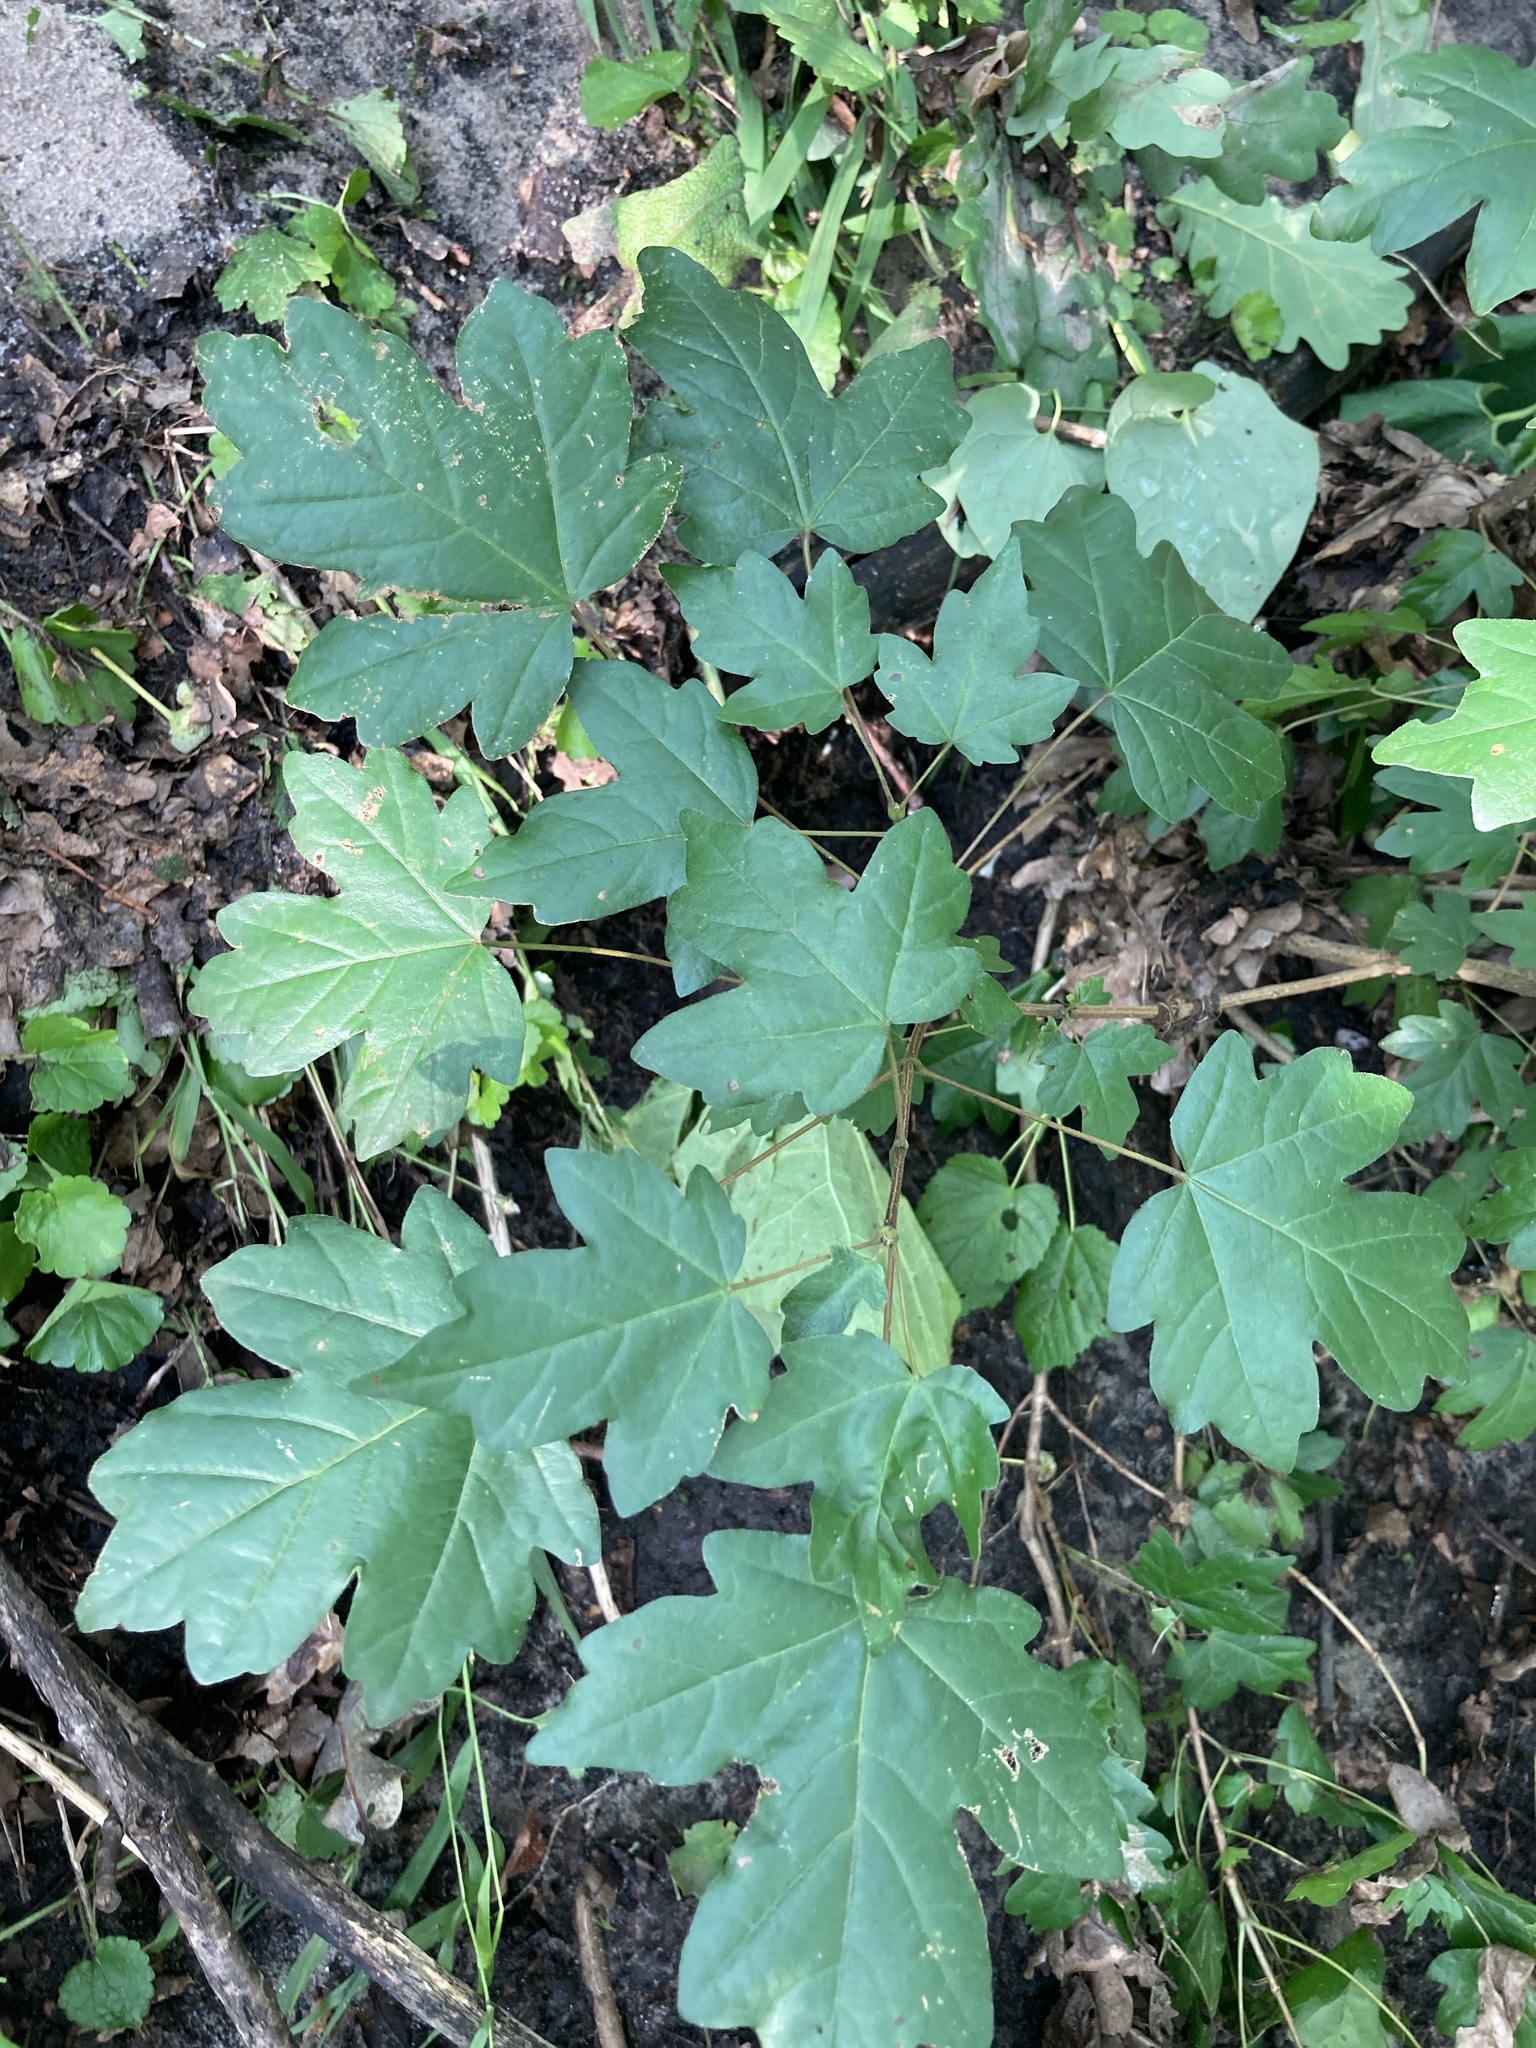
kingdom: Plantae
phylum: Tracheophyta
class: Magnoliopsida
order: Sapindales
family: Sapindaceae
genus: Acer
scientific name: Acer campestre
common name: Field maple
